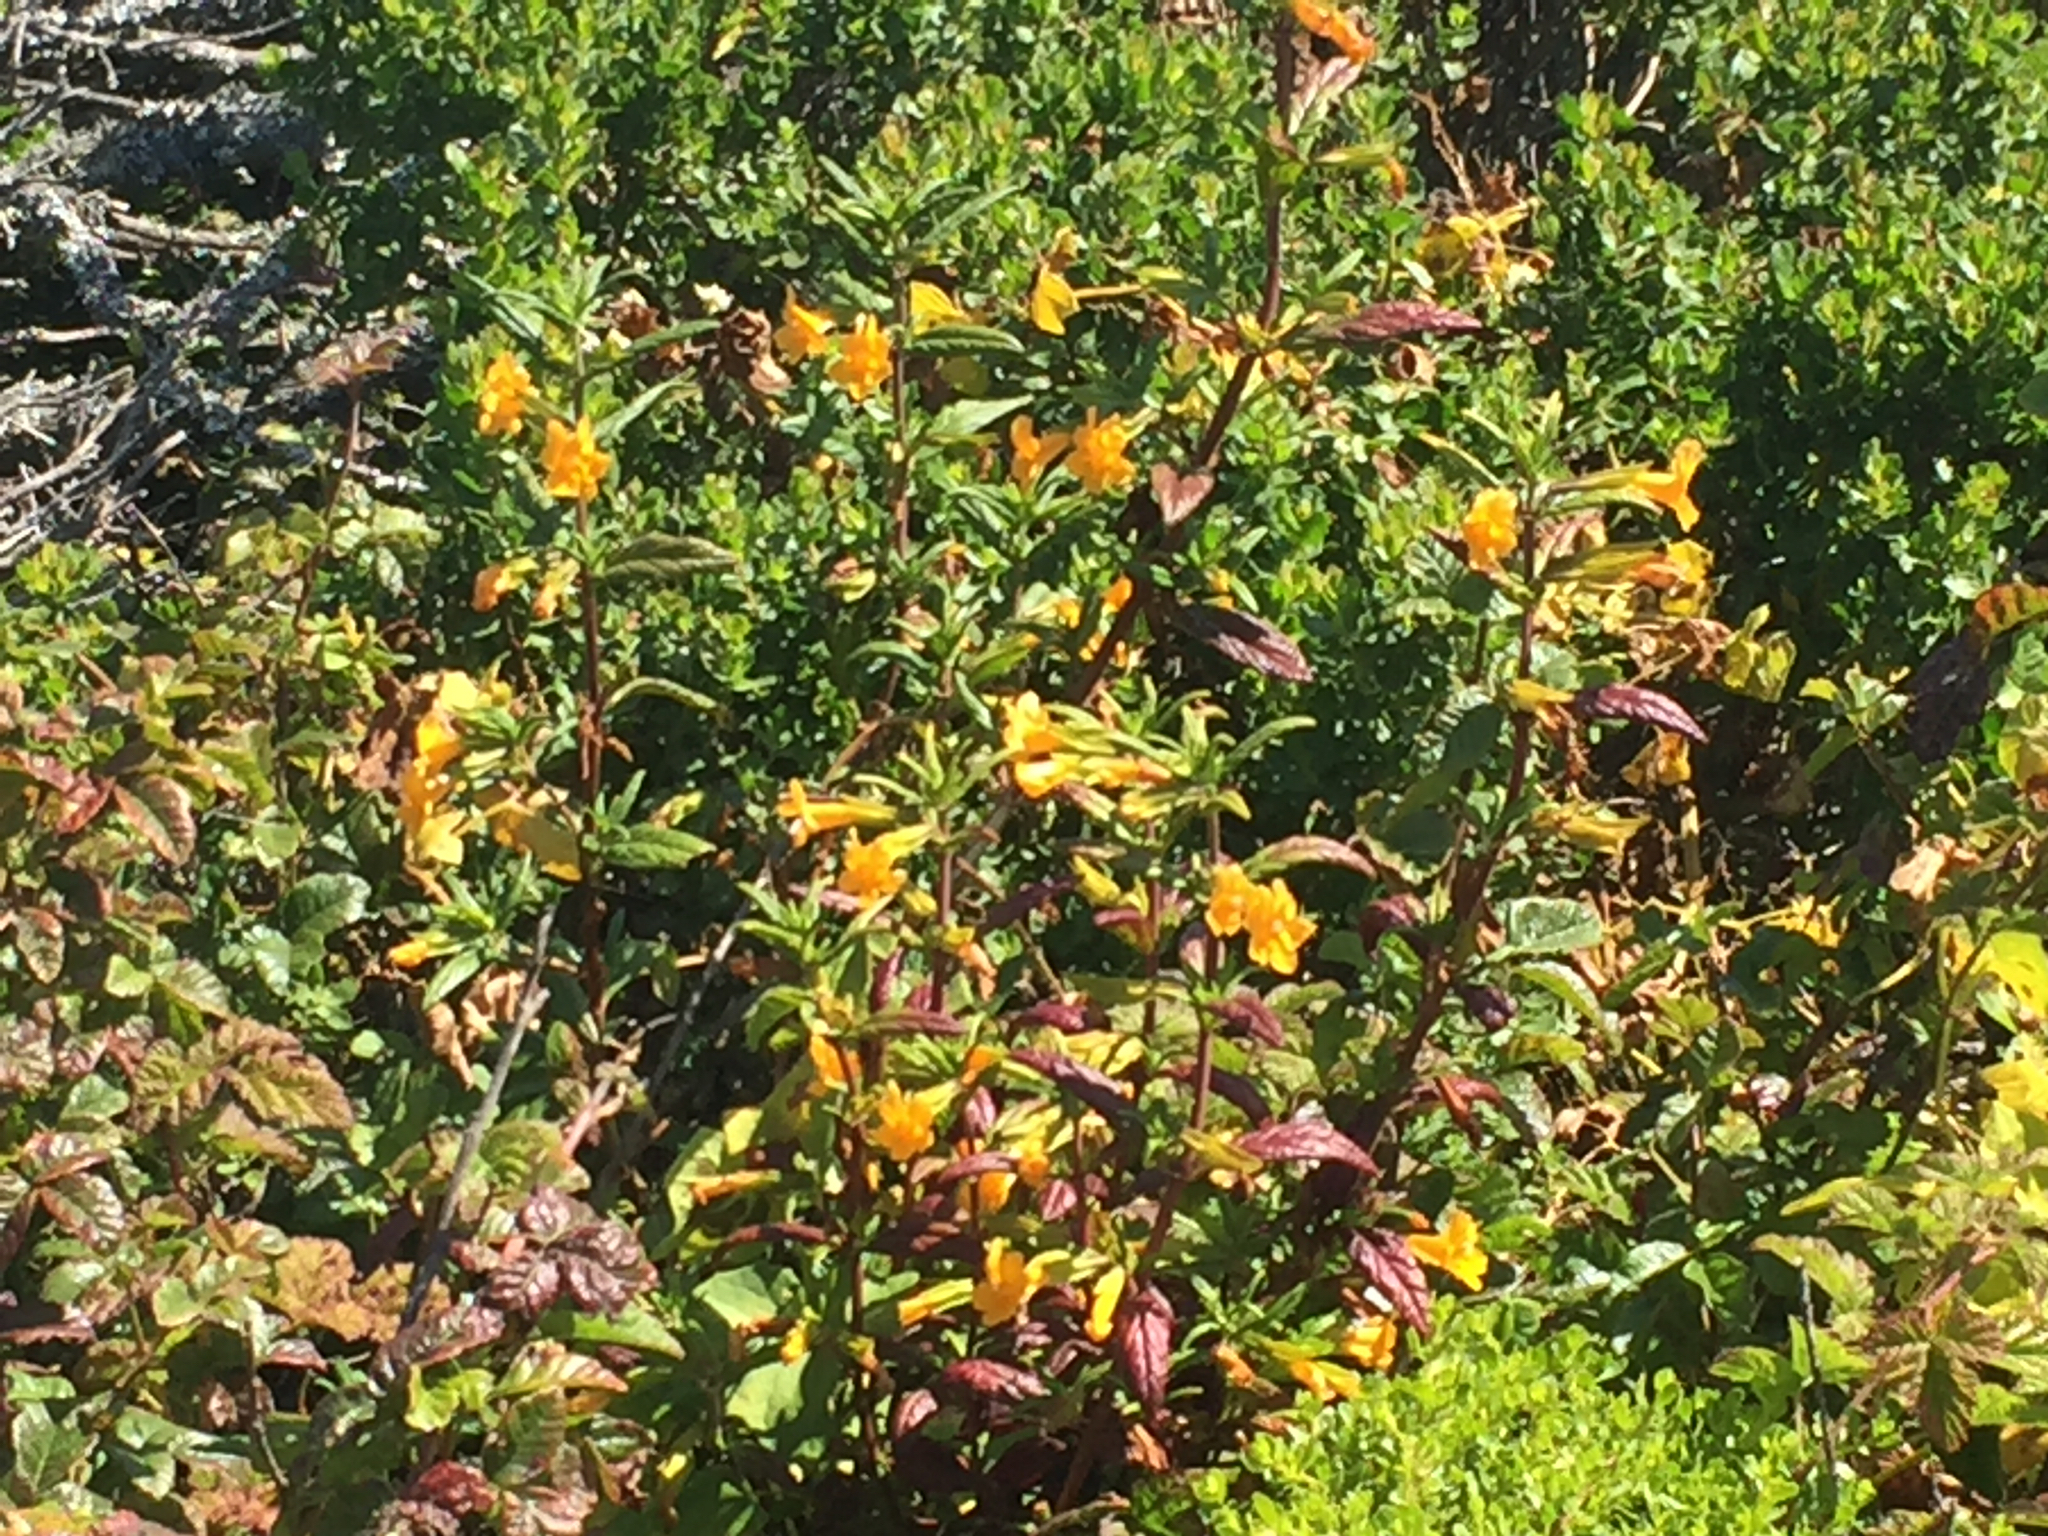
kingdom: Plantae
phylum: Tracheophyta
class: Magnoliopsida
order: Lamiales
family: Phrymaceae
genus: Diplacus
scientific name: Diplacus aurantiacus
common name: Bush monkey-flower
